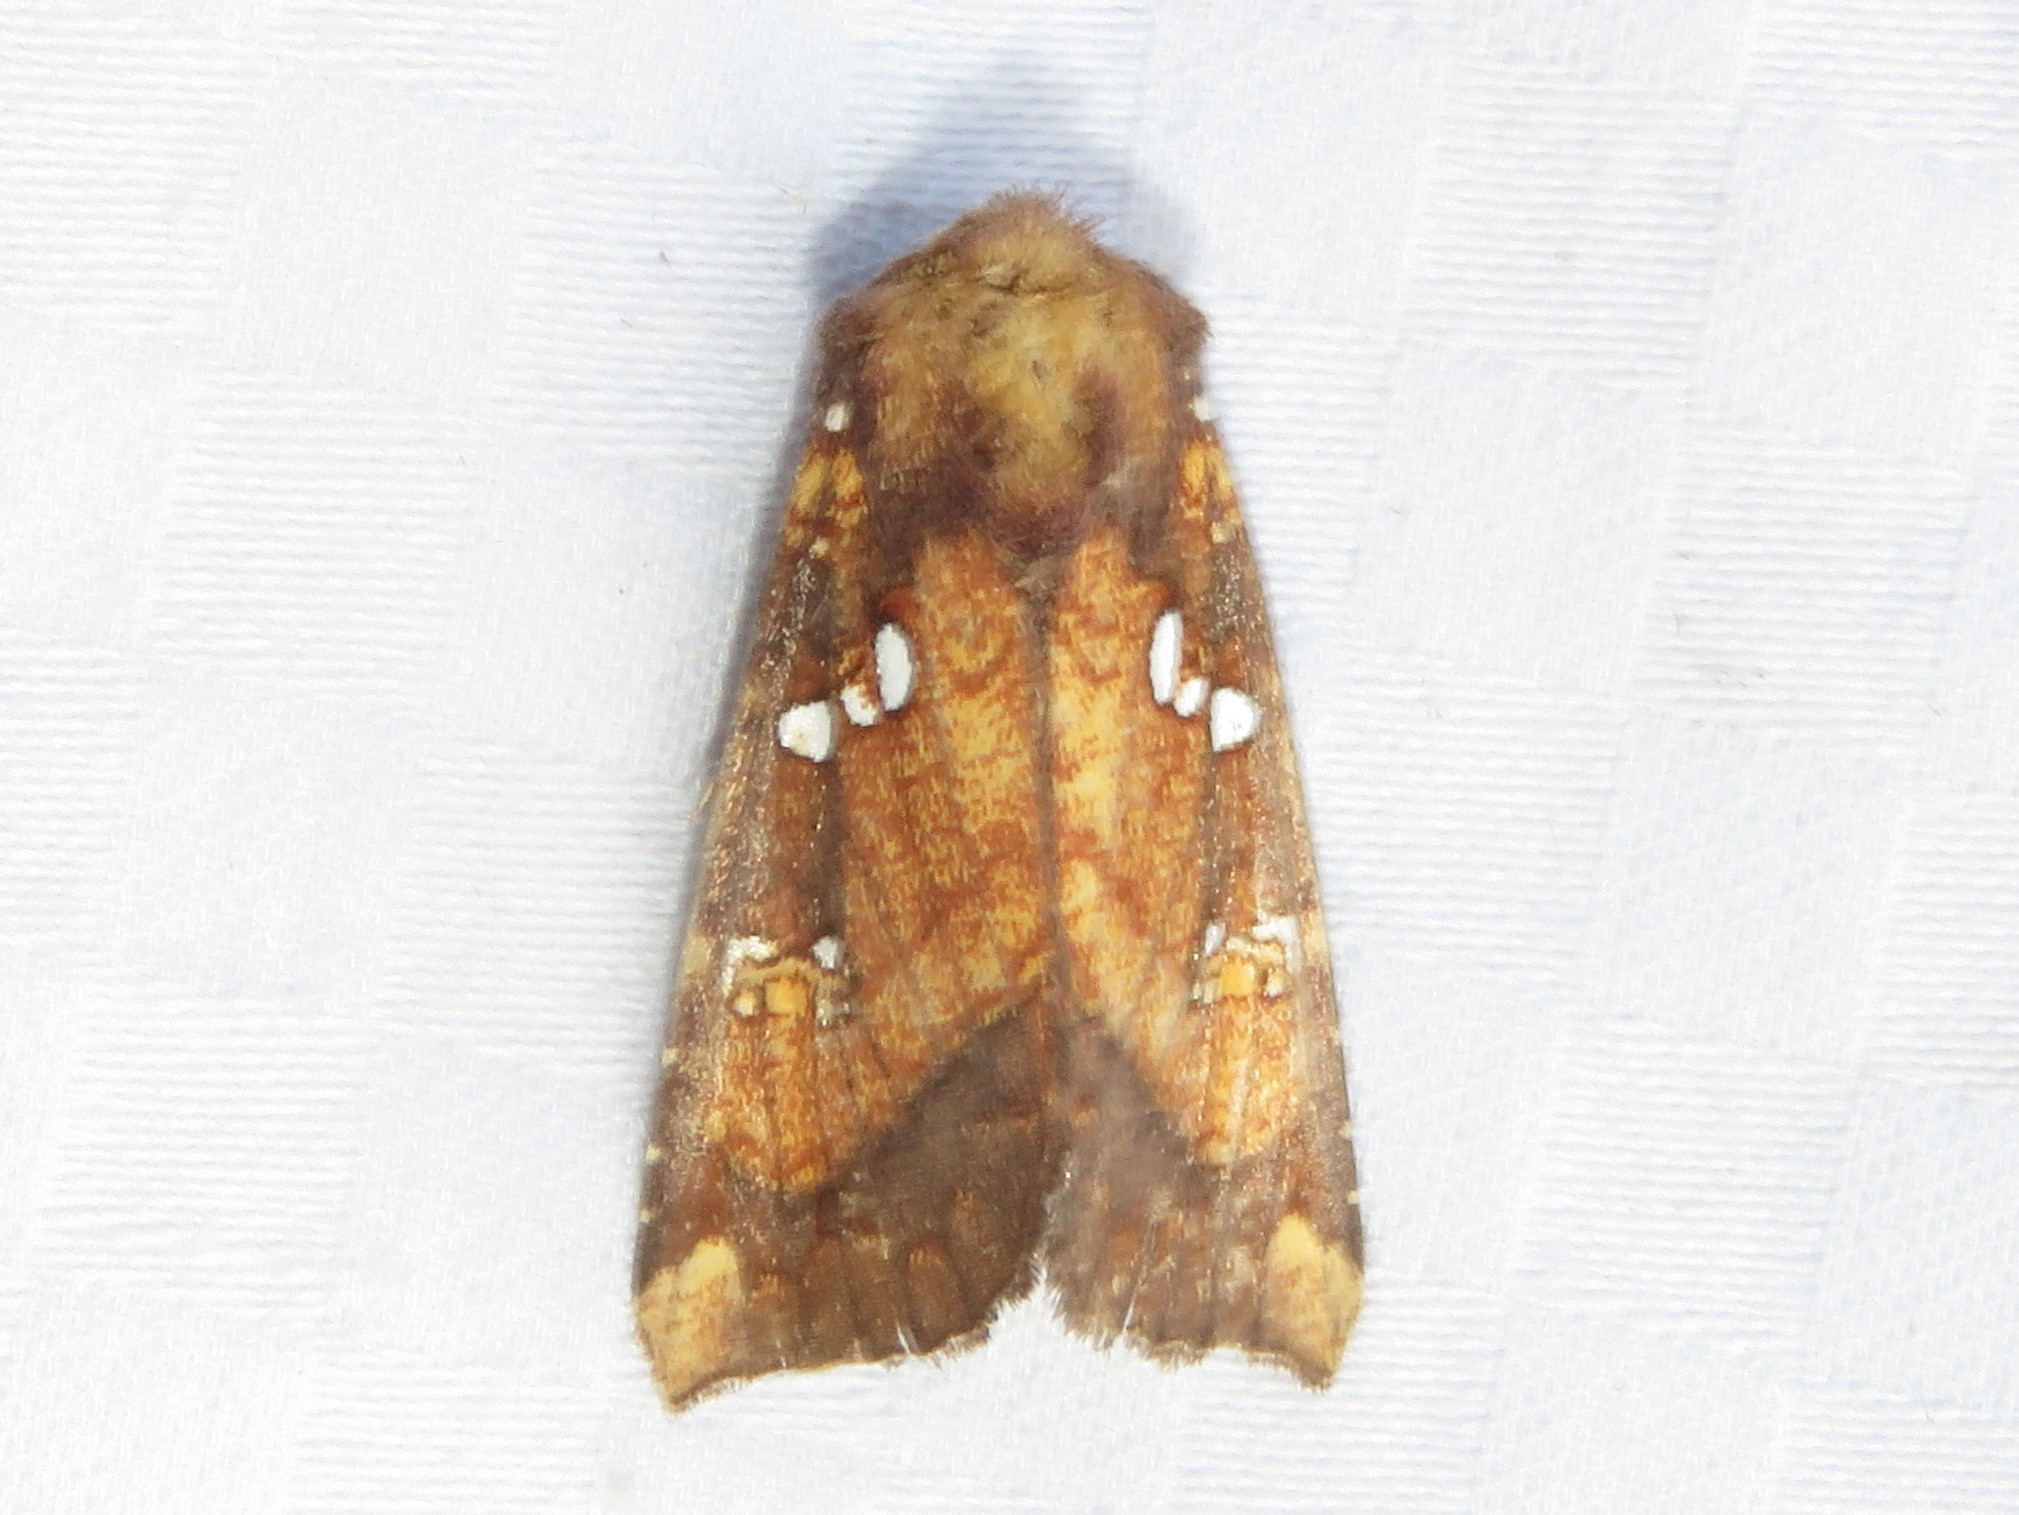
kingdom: Animalia
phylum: Arthropoda
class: Insecta
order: Lepidoptera
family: Noctuidae
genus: Papaipema
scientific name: Papaipema arctivorens
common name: Northern burdock borer moth
